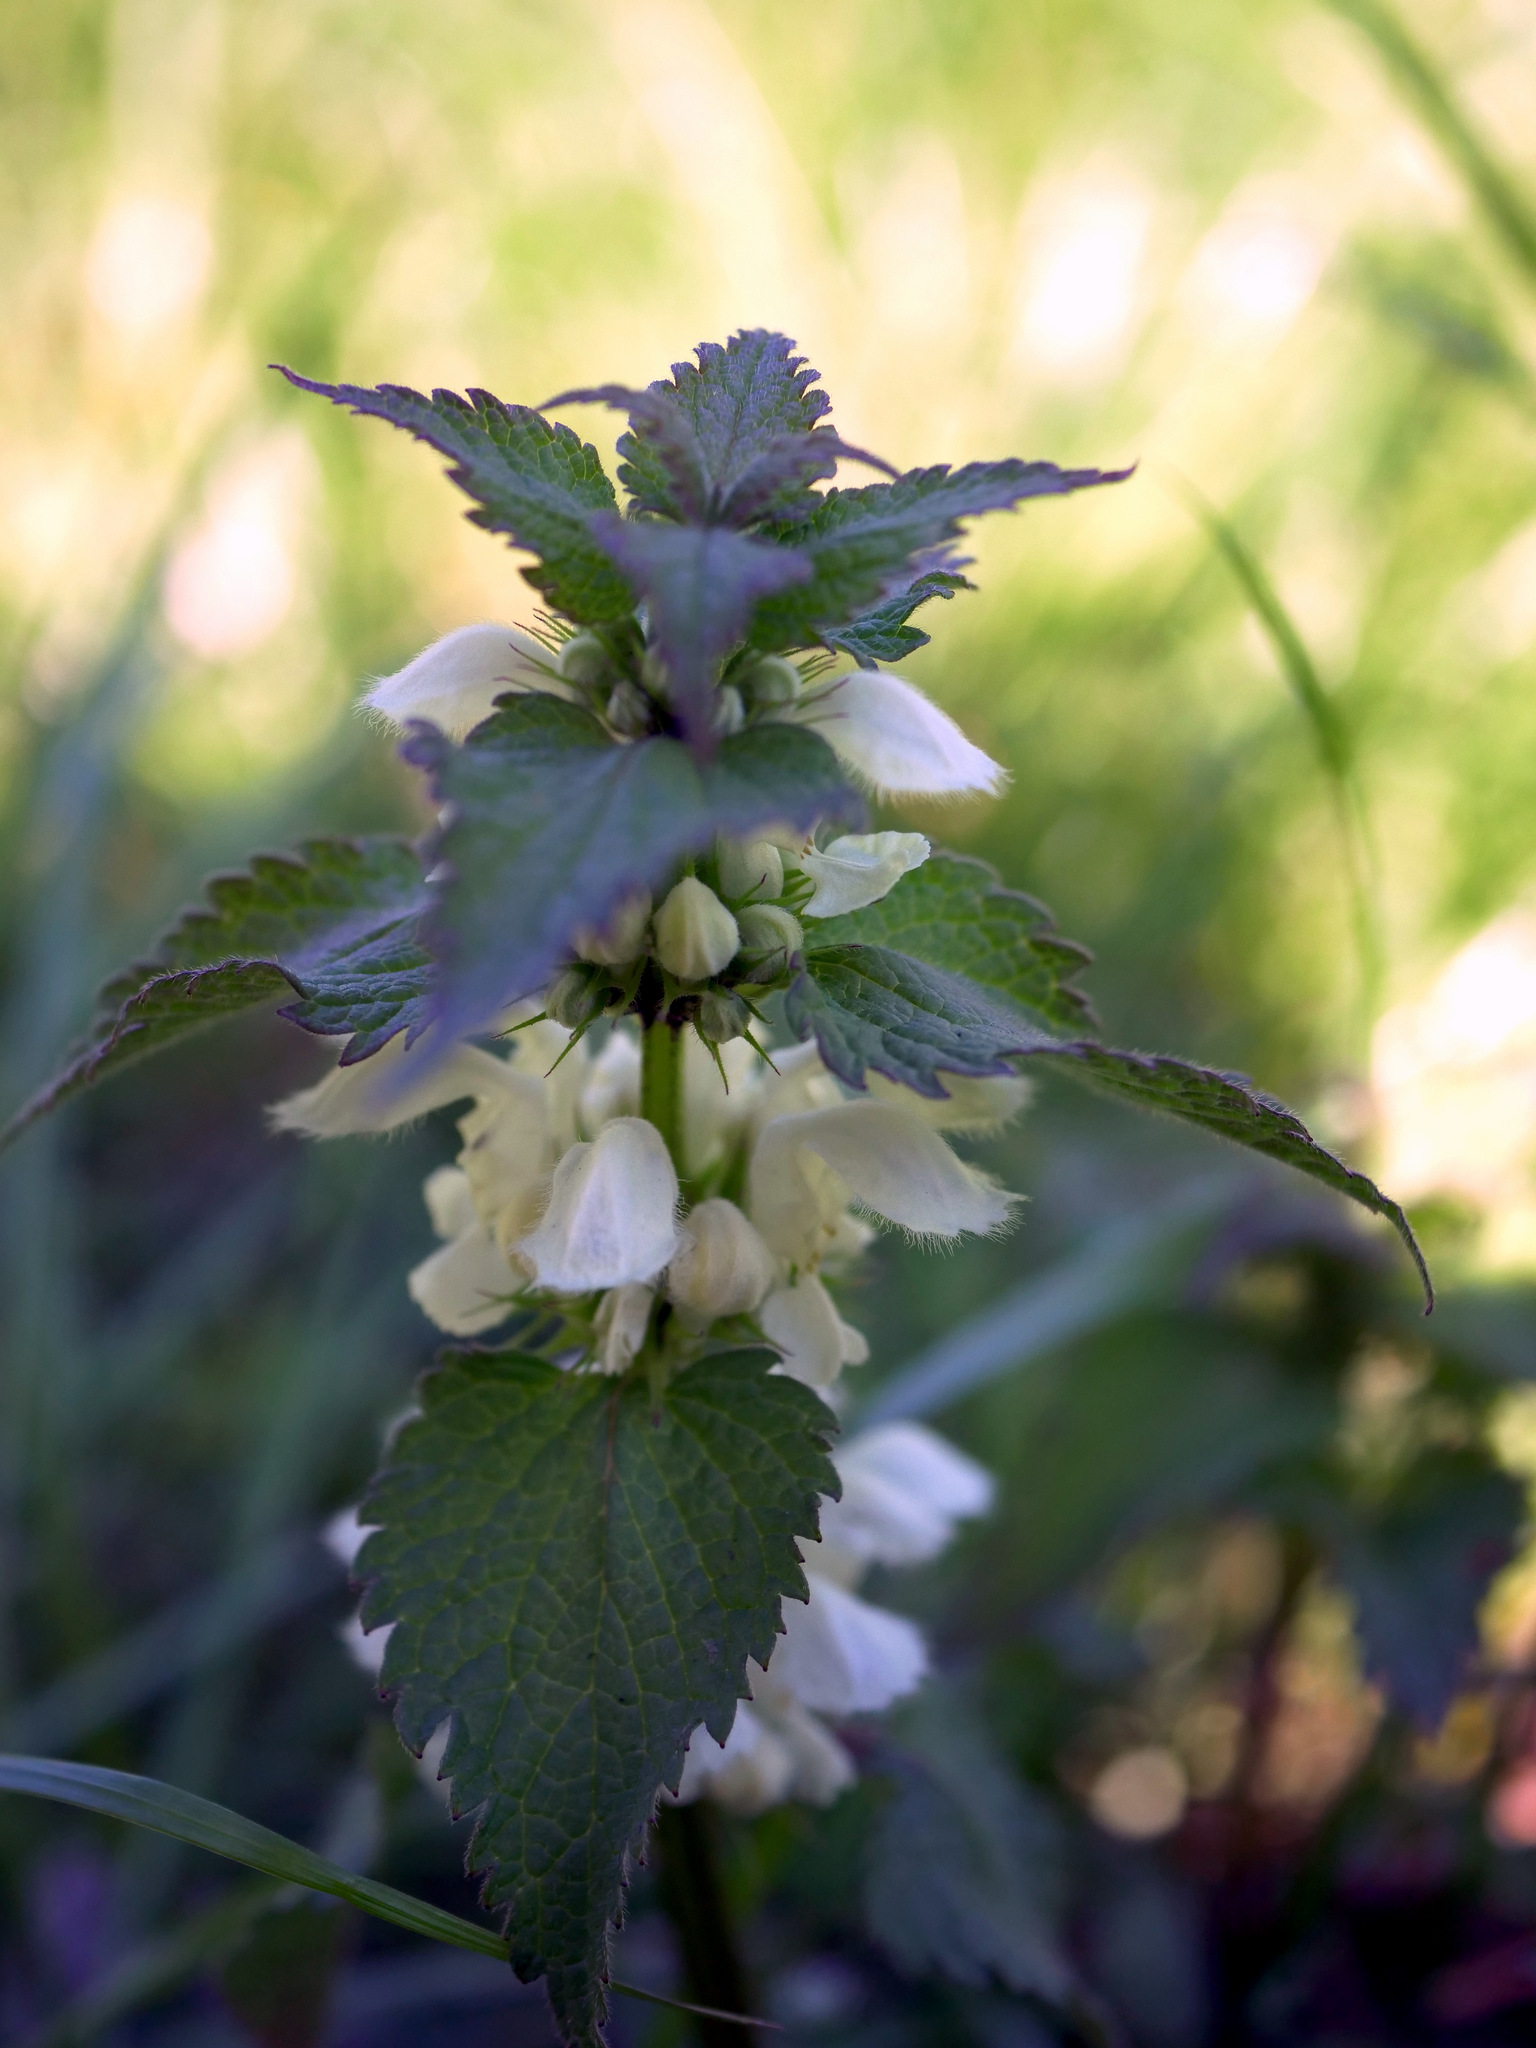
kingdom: Plantae
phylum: Tracheophyta
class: Magnoliopsida
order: Lamiales
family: Lamiaceae
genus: Lamium
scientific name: Lamium album
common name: White dead-nettle
